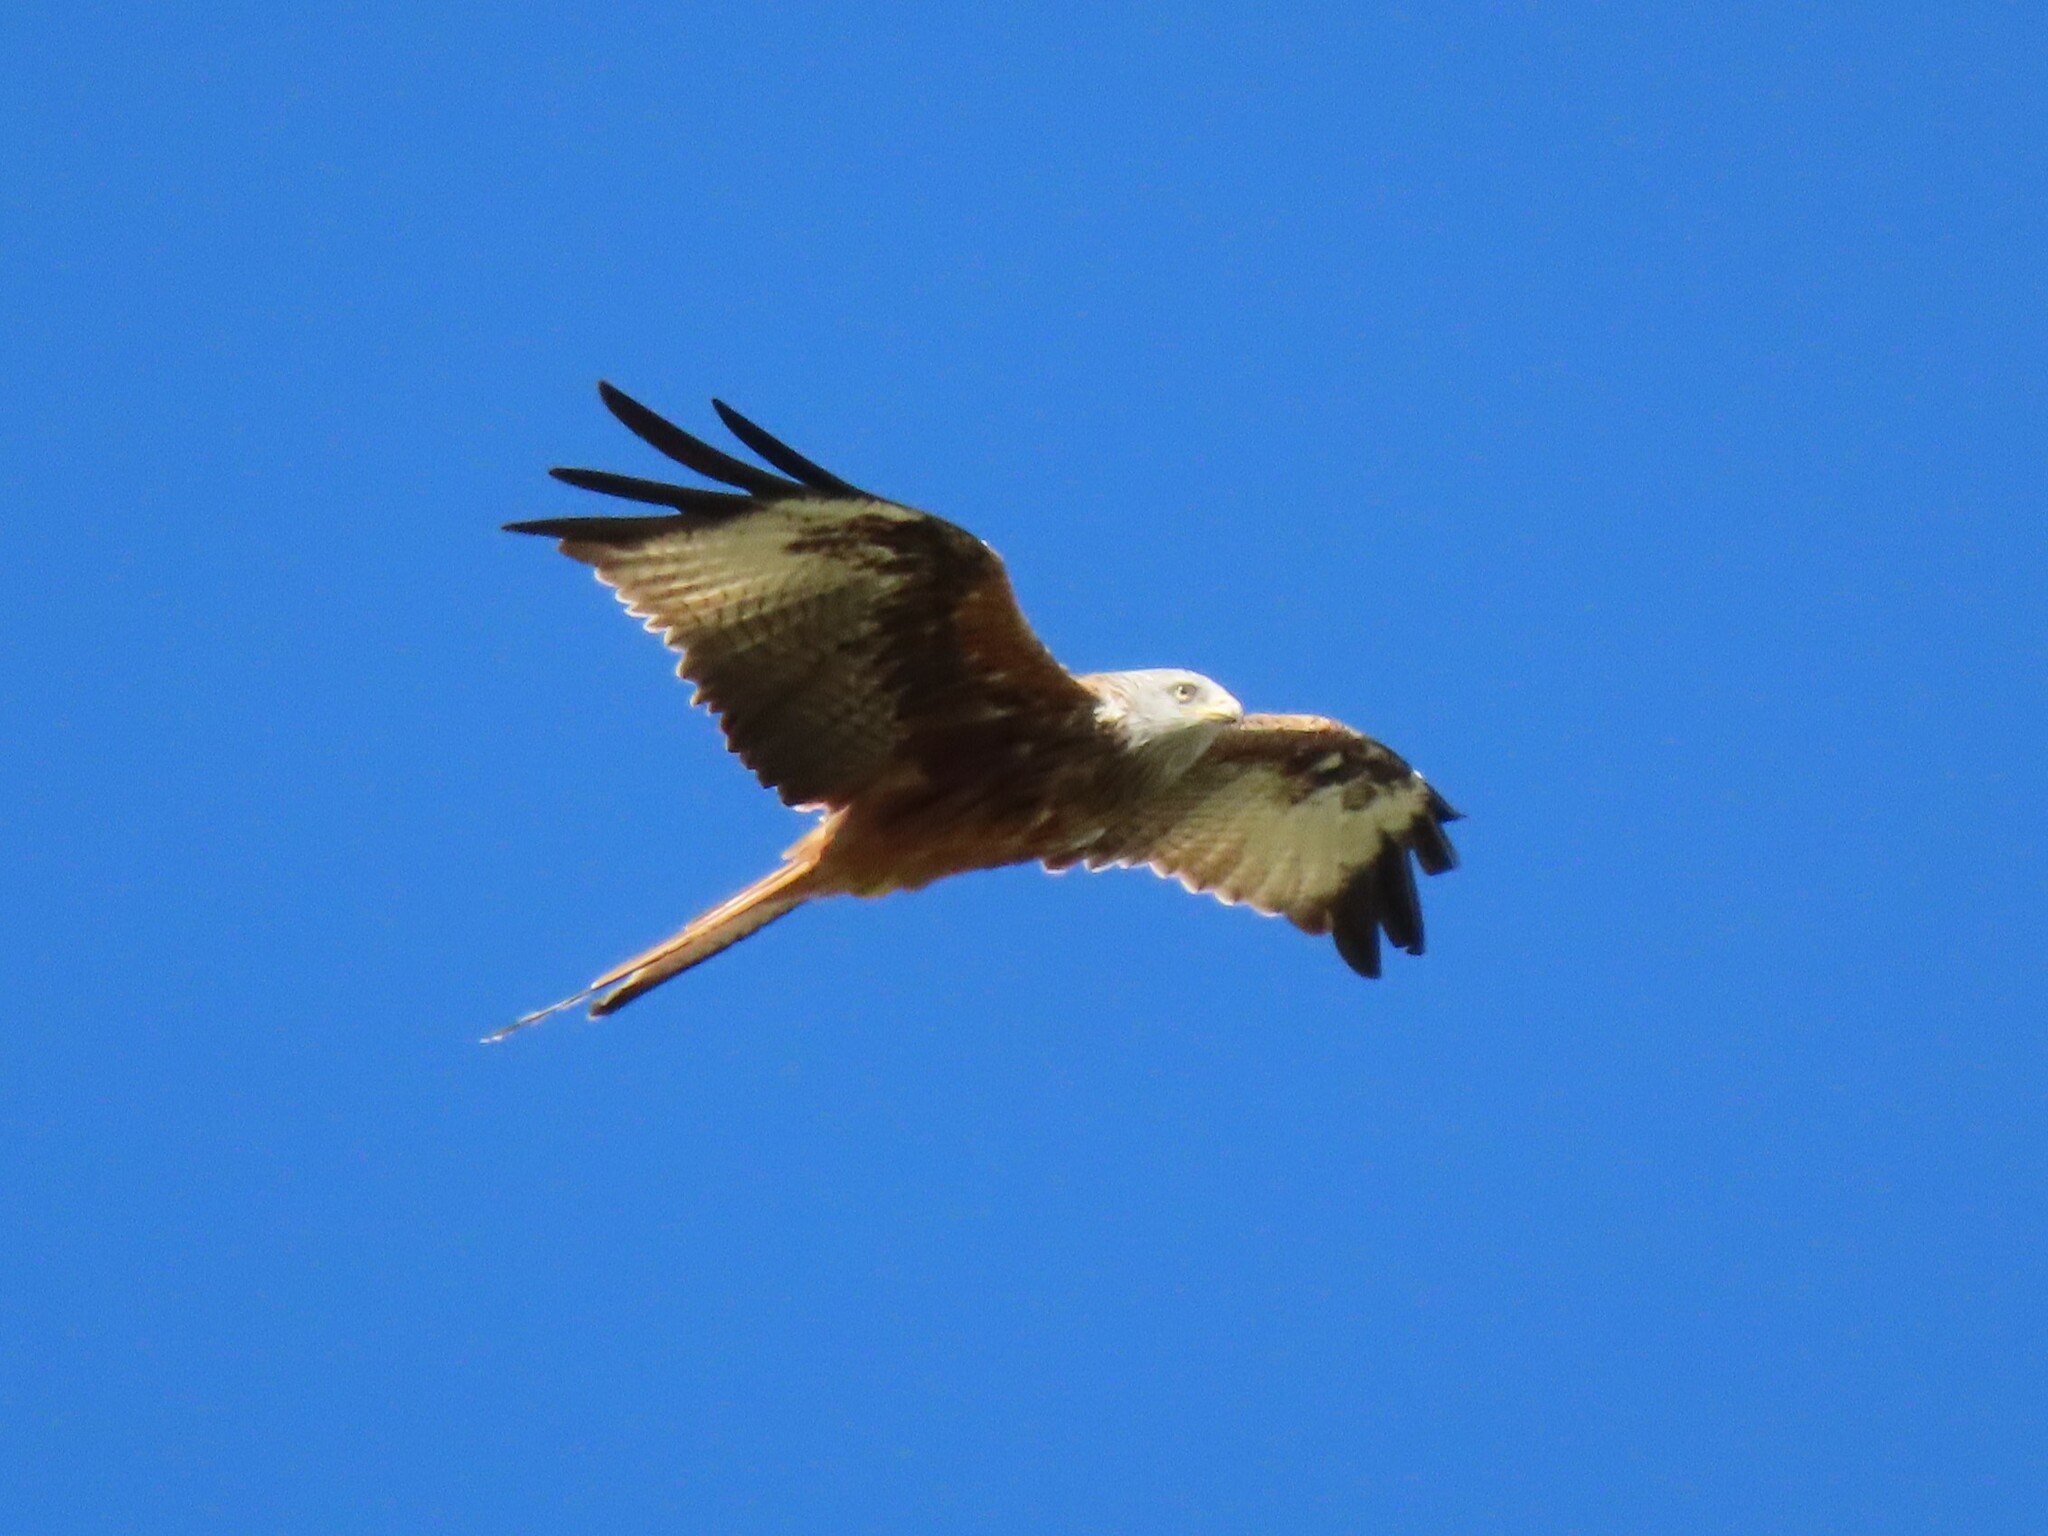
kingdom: Animalia
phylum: Chordata
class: Aves
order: Accipitriformes
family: Accipitridae
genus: Milvus
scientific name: Milvus milvus
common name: Red kite
